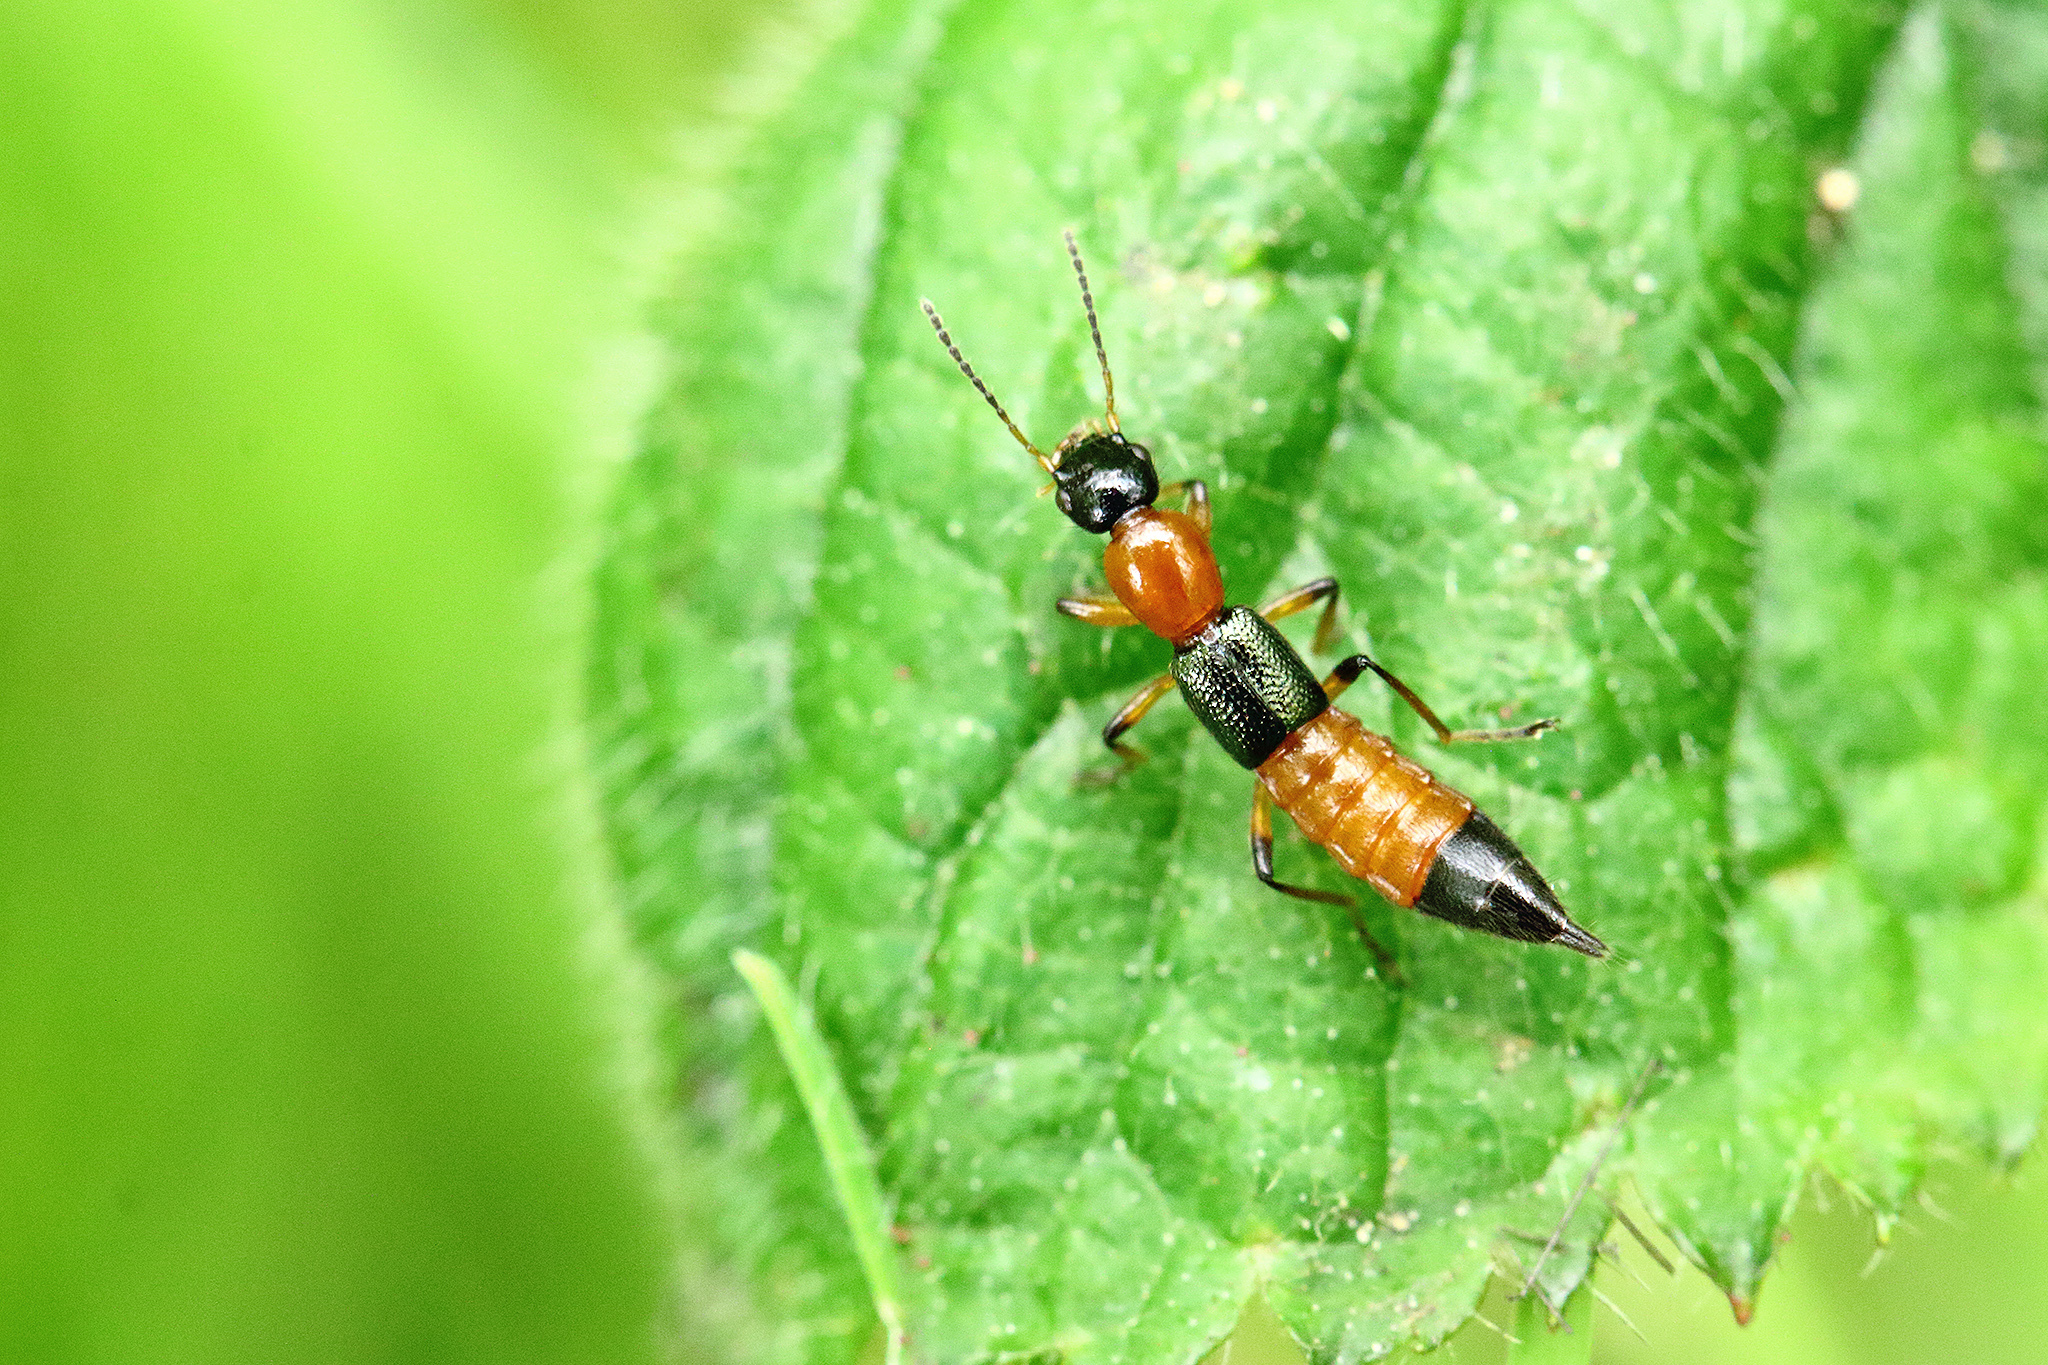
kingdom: Animalia
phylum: Arthropoda
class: Insecta
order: Coleoptera
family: Staphylinidae
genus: Paederus
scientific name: Paederus riparius
